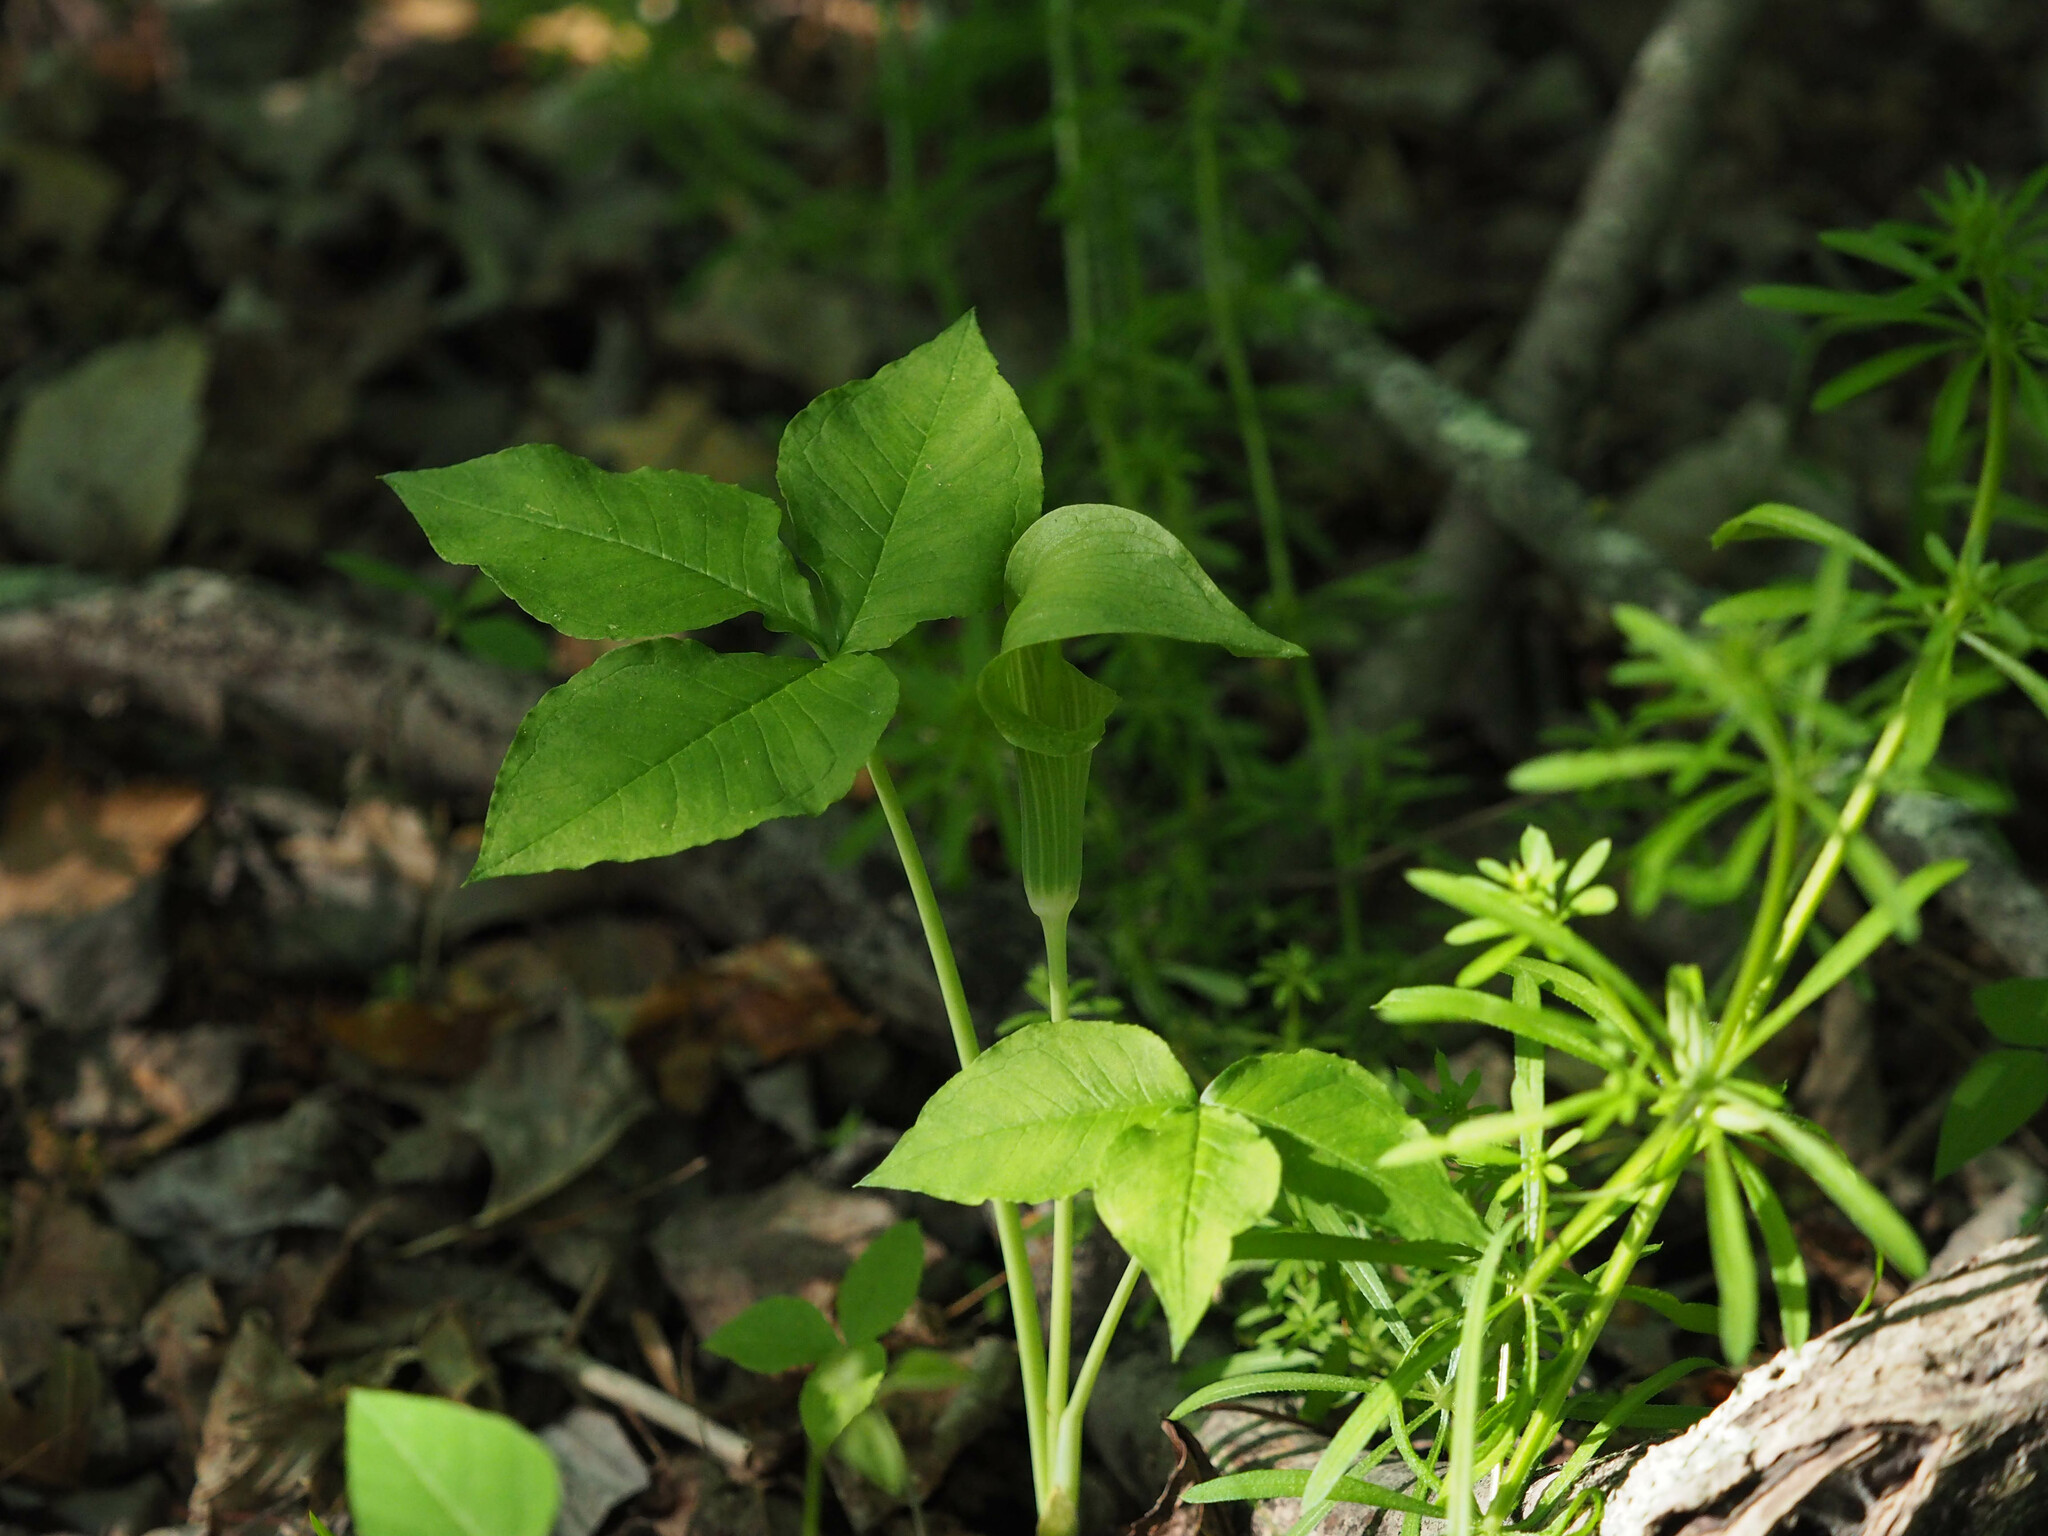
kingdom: Plantae
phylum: Tracheophyta
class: Liliopsida
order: Alismatales
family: Araceae
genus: Arisaema
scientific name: Arisaema triphyllum
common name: Jack-in-the-pulpit
